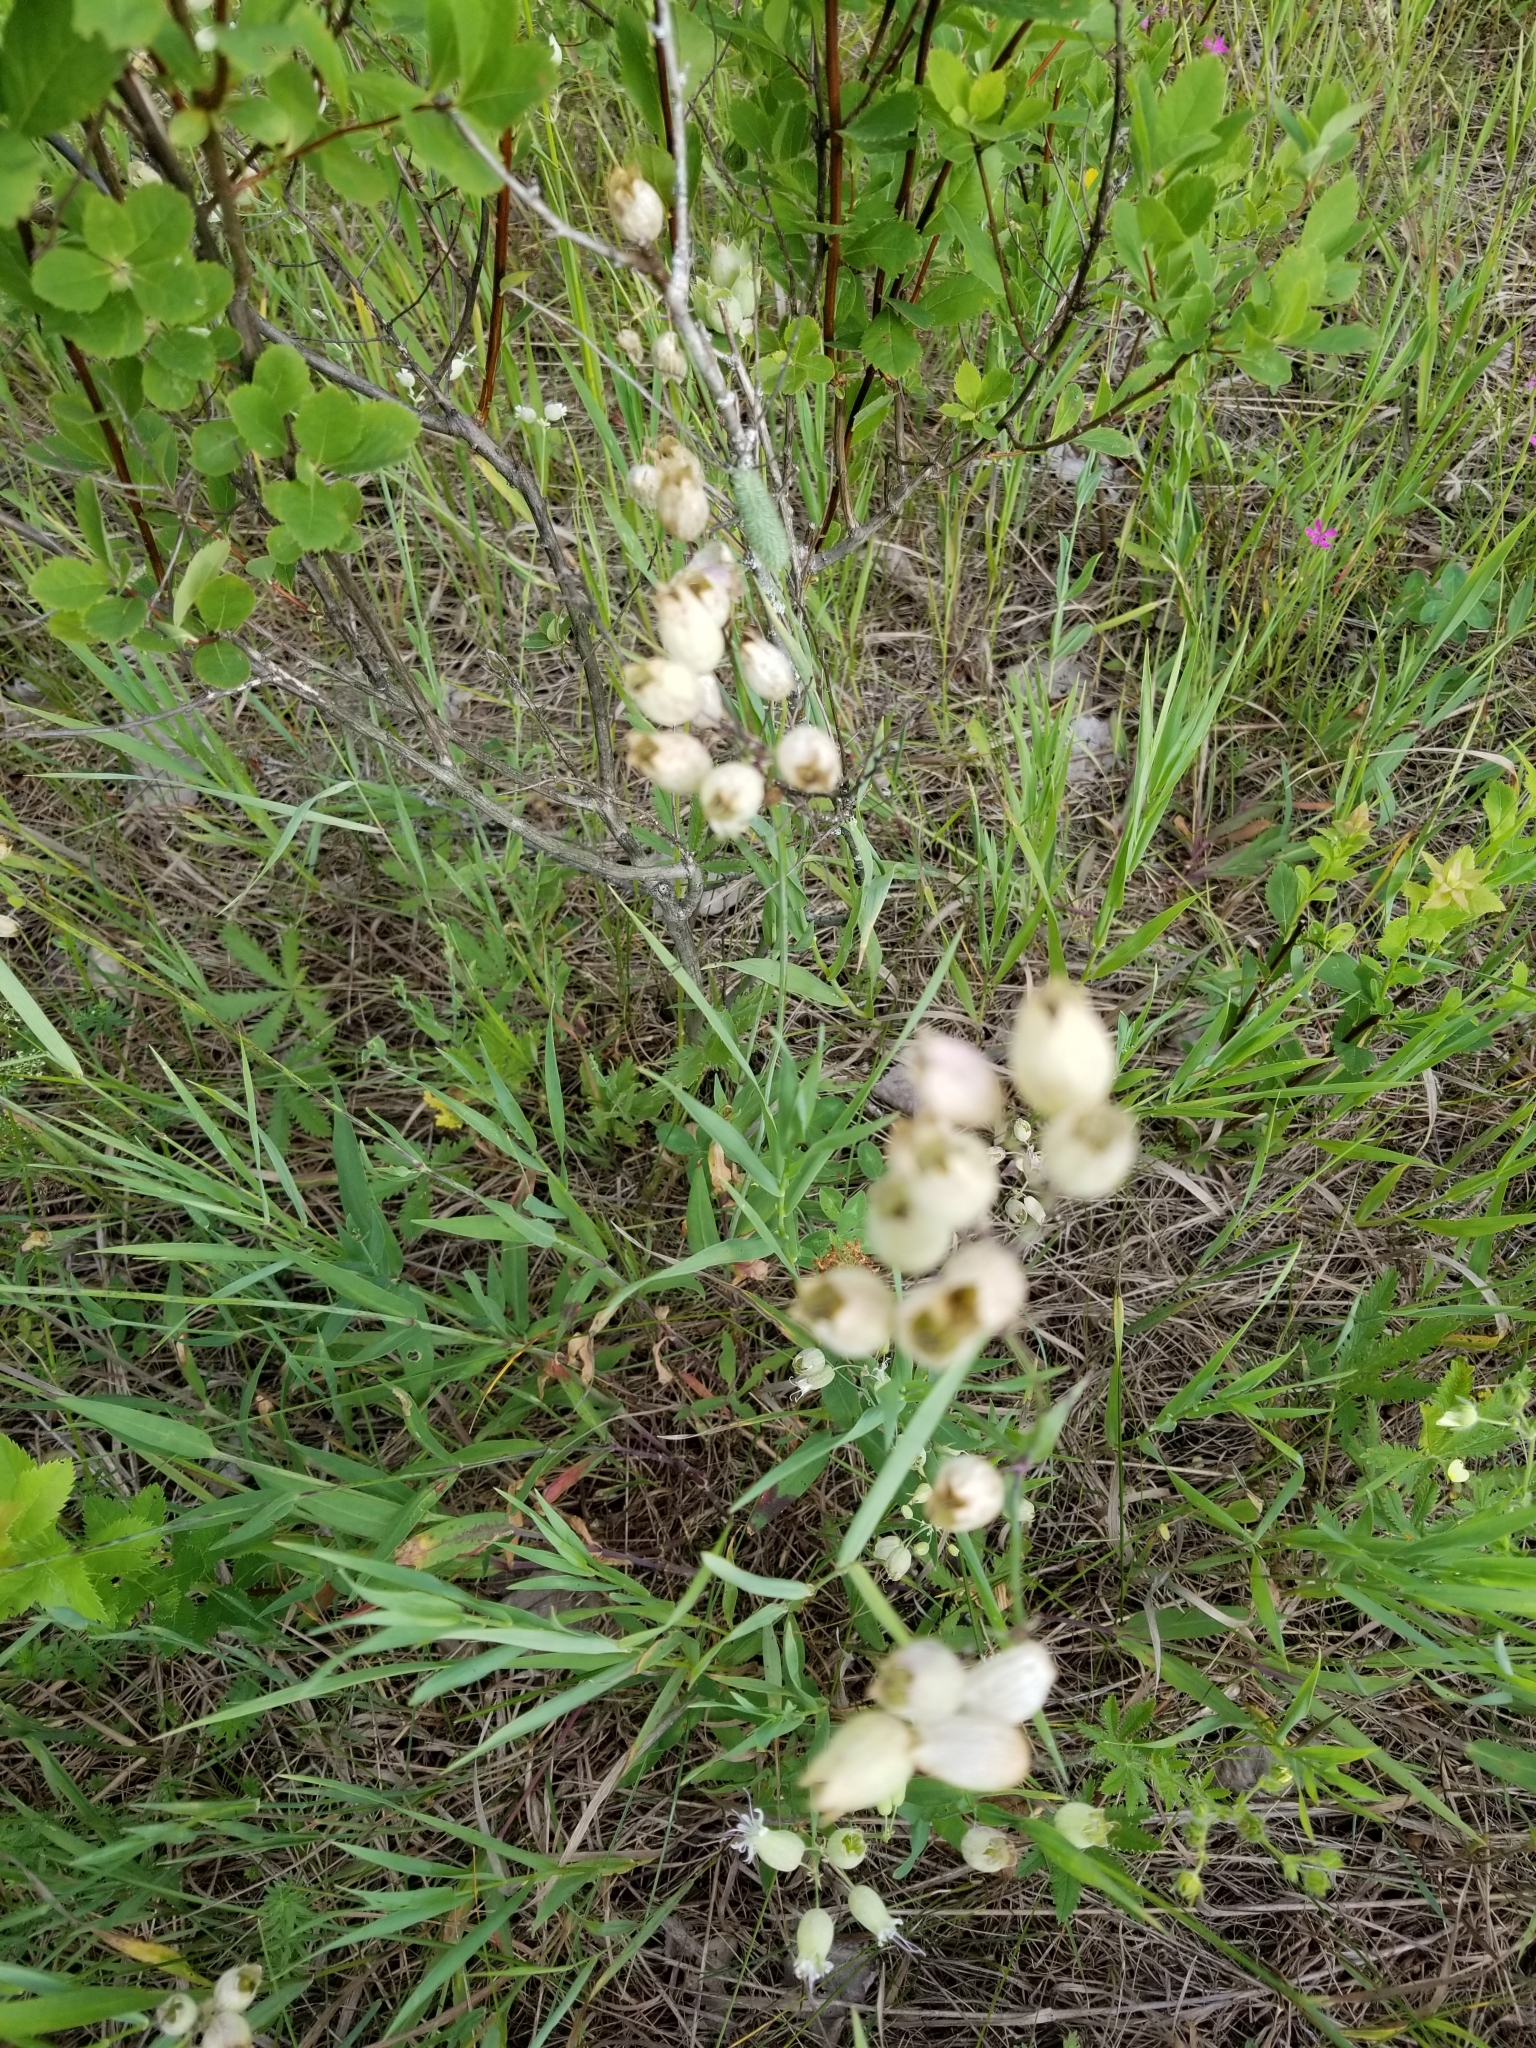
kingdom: Plantae
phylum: Tracheophyta
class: Magnoliopsida
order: Caryophyllales
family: Caryophyllaceae
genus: Silene
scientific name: Silene vulgaris
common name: Bladder campion
